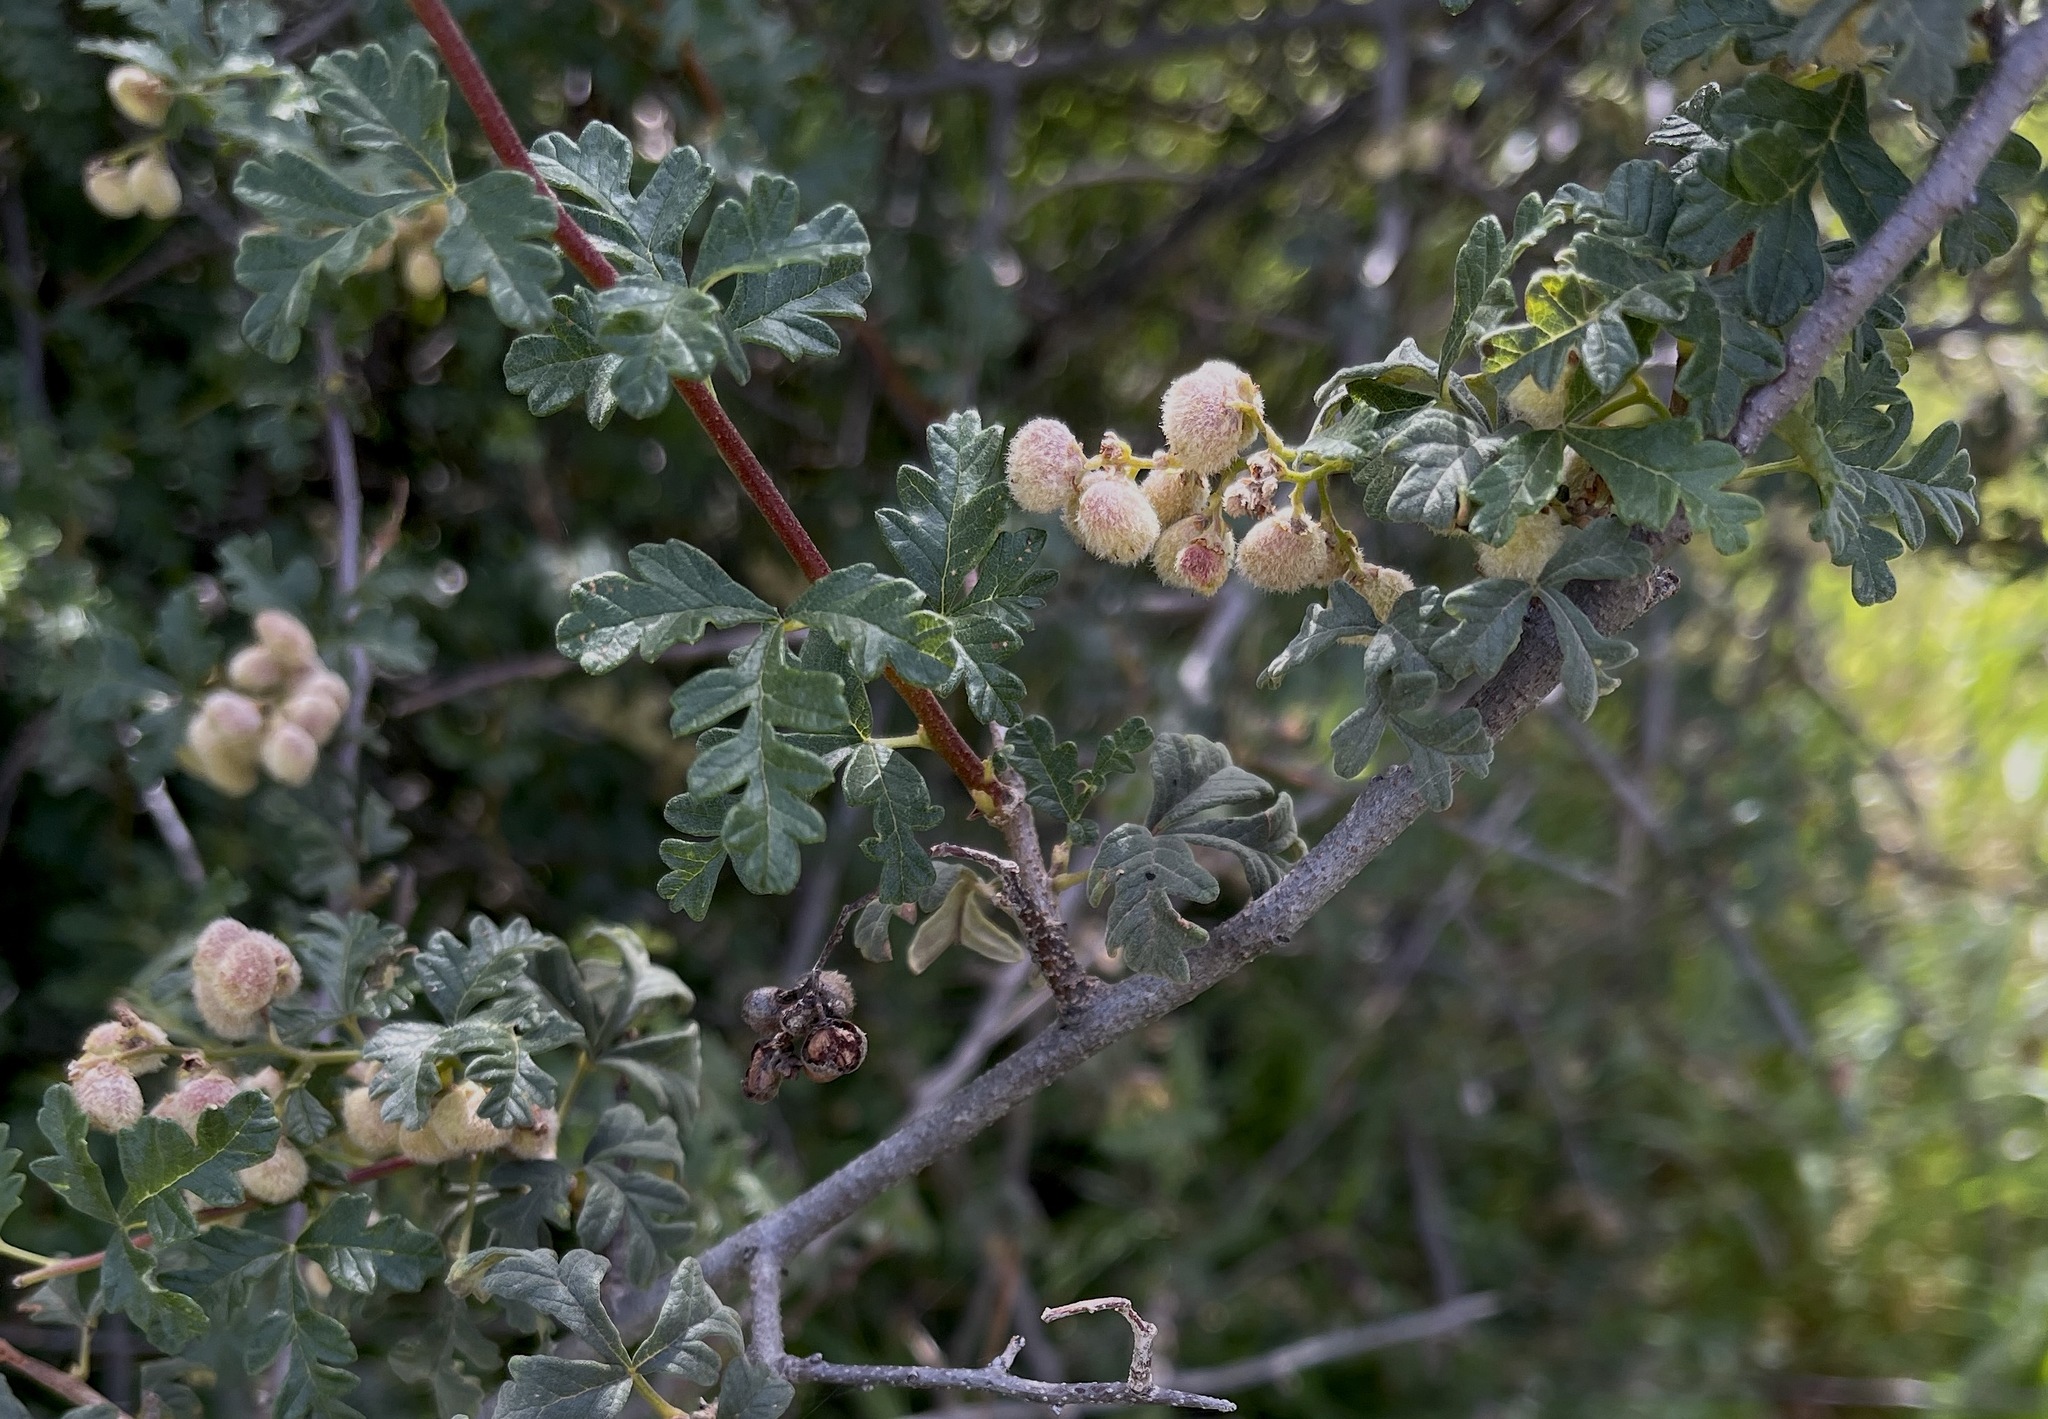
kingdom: Plantae
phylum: Tracheophyta
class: Magnoliopsida
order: Sapindales
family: Anacardiaceae
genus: Searsia
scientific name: Searsia incisa
